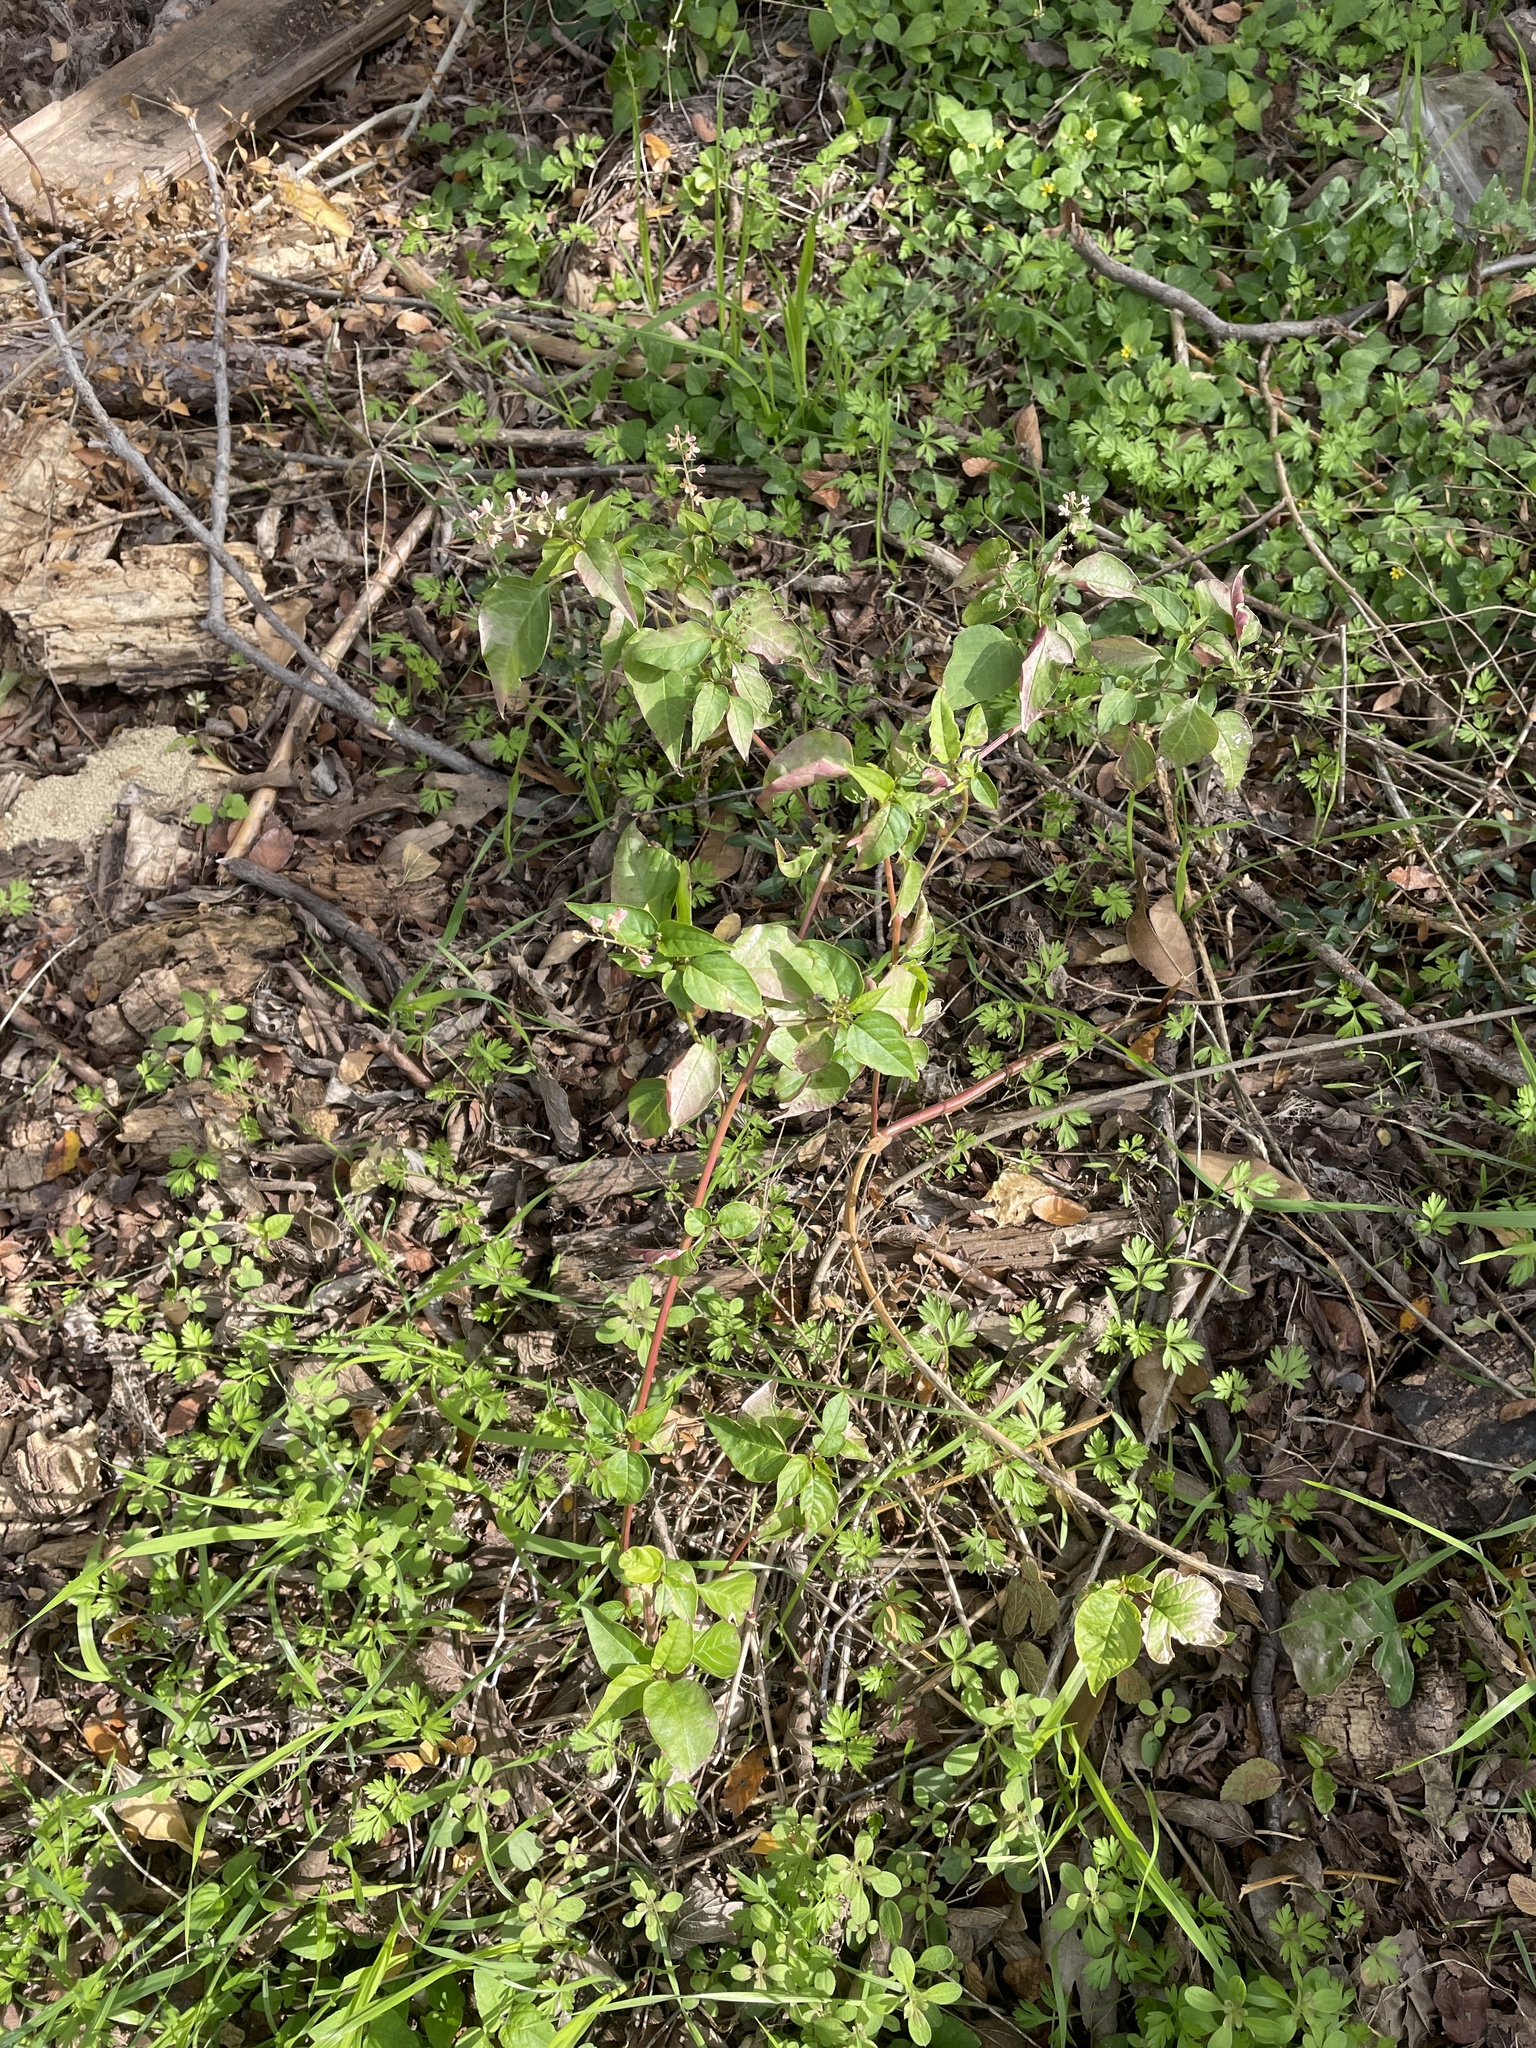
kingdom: Plantae
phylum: Tracheophyta
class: Magnoliopsida
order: Caryophyllales
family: Phytolaccaceae
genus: Rivina
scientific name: Rivina humilis
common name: Rougeplant
